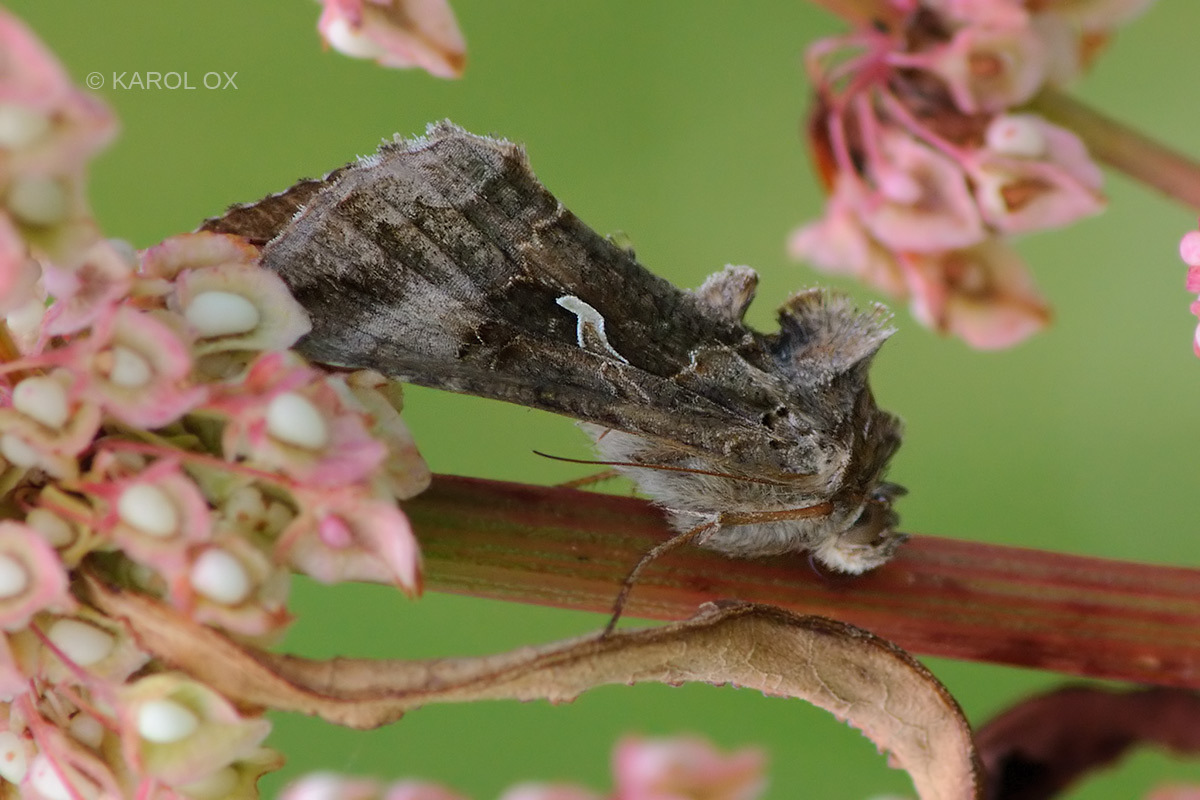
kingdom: Animalia
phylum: Arthropoda
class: Insecta
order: Lepidoptera
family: Noctuidae
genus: Autographa
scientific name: Autographa gamma
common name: Silver y
